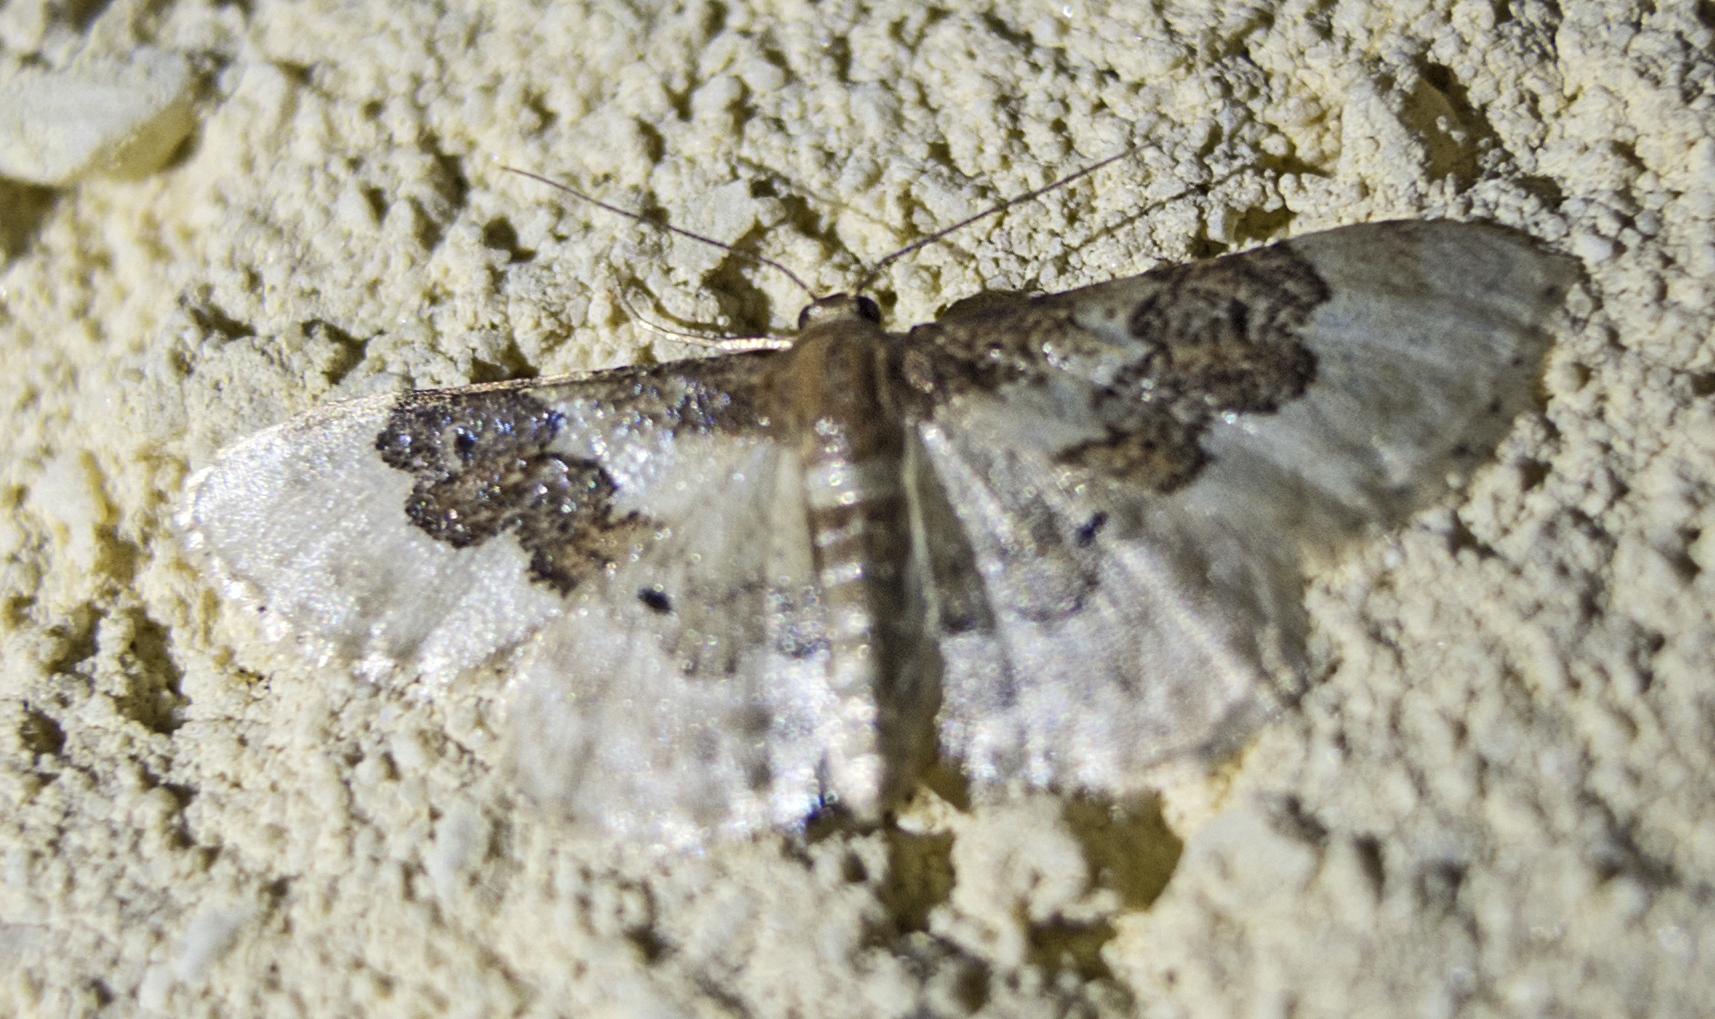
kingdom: Animalia
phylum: Arthropoda
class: Insecta
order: Lepidoptera
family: Geometridae
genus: Idaea
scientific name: Idaea rusticata
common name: Least carpet
